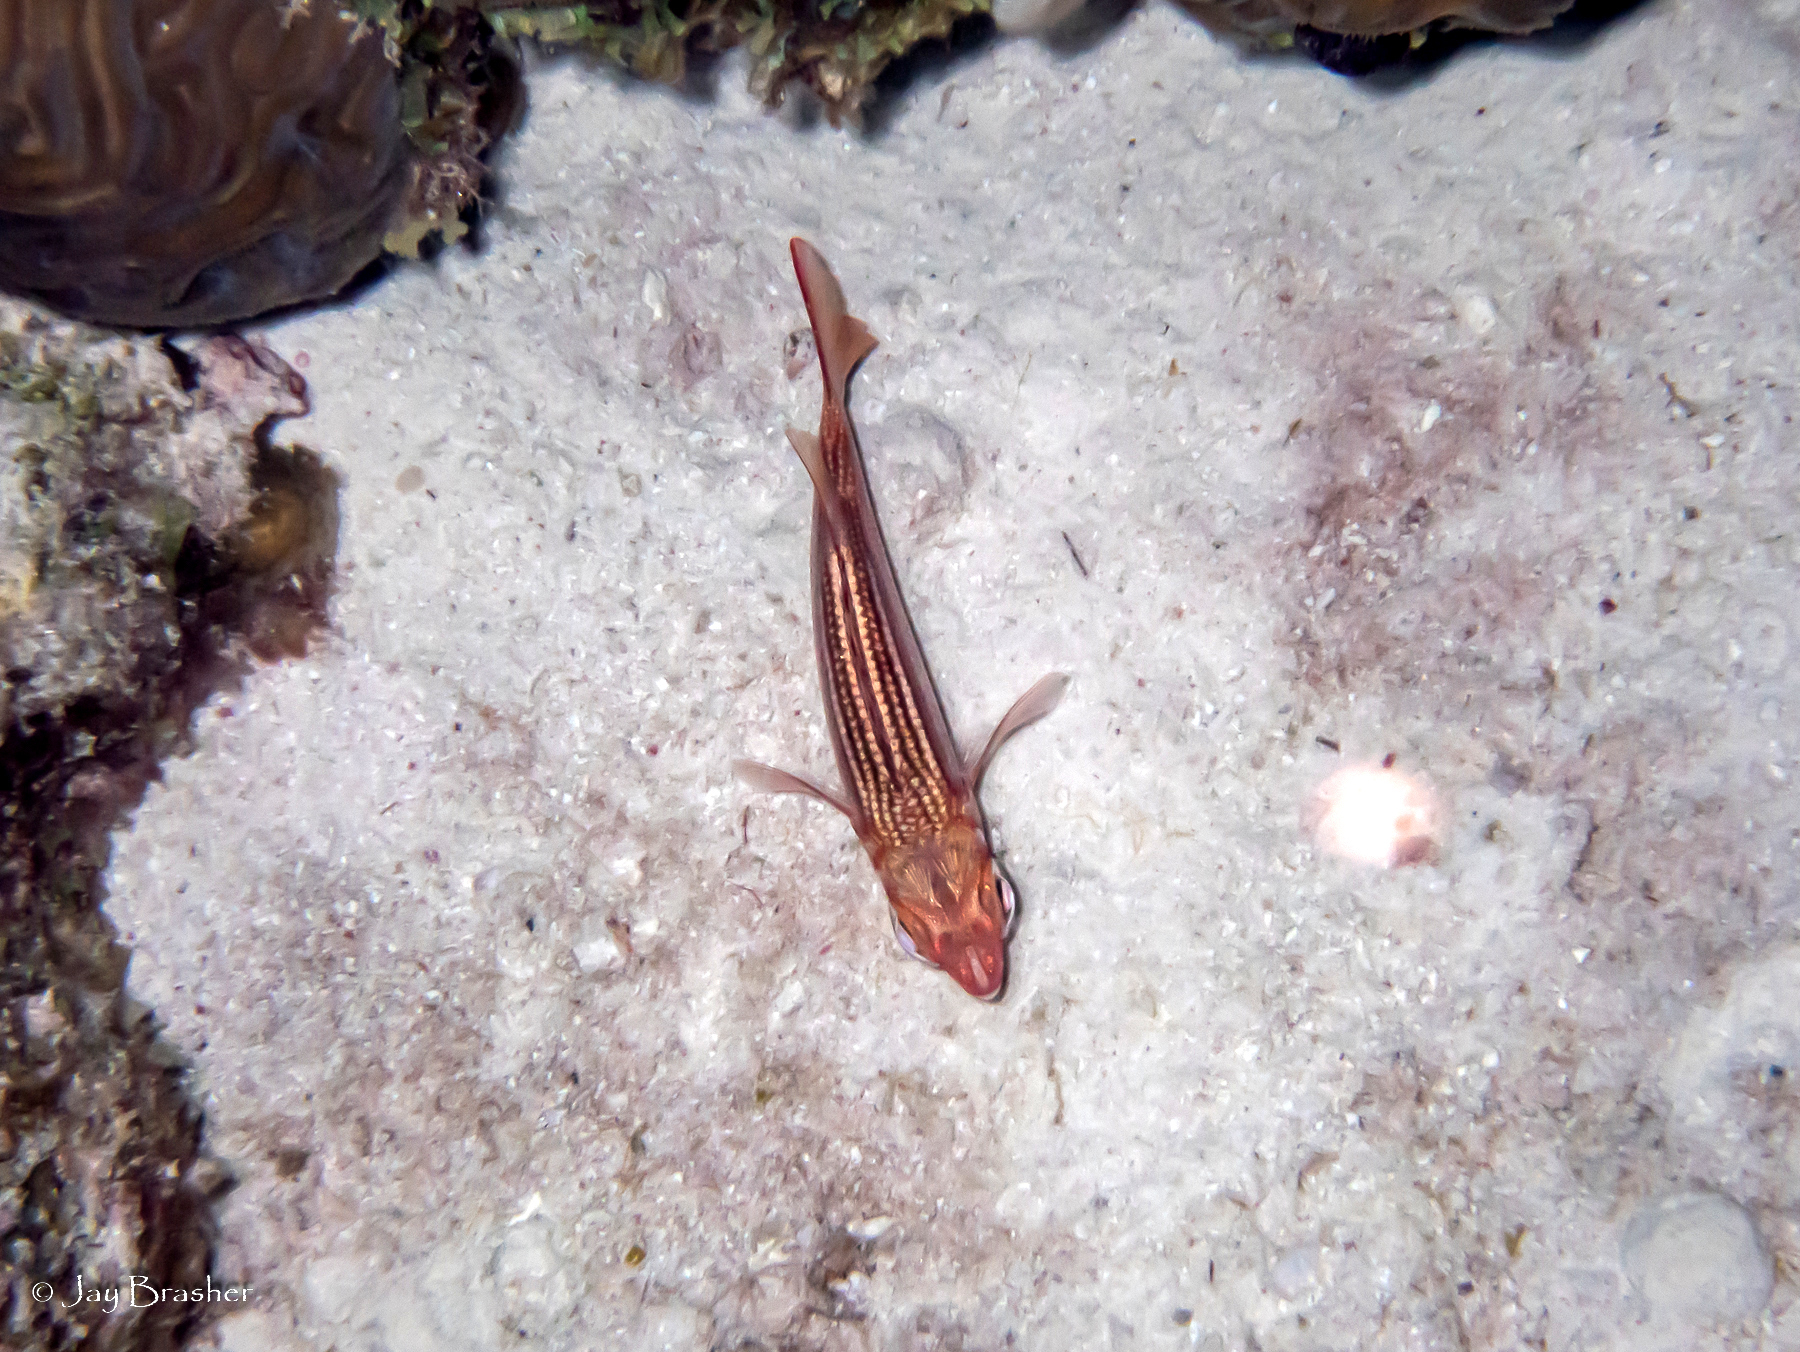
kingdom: Animalia
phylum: Chordata
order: Beryciformes
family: Holocentridae
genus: Neoniphon
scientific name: Neoniphon vexillarium
